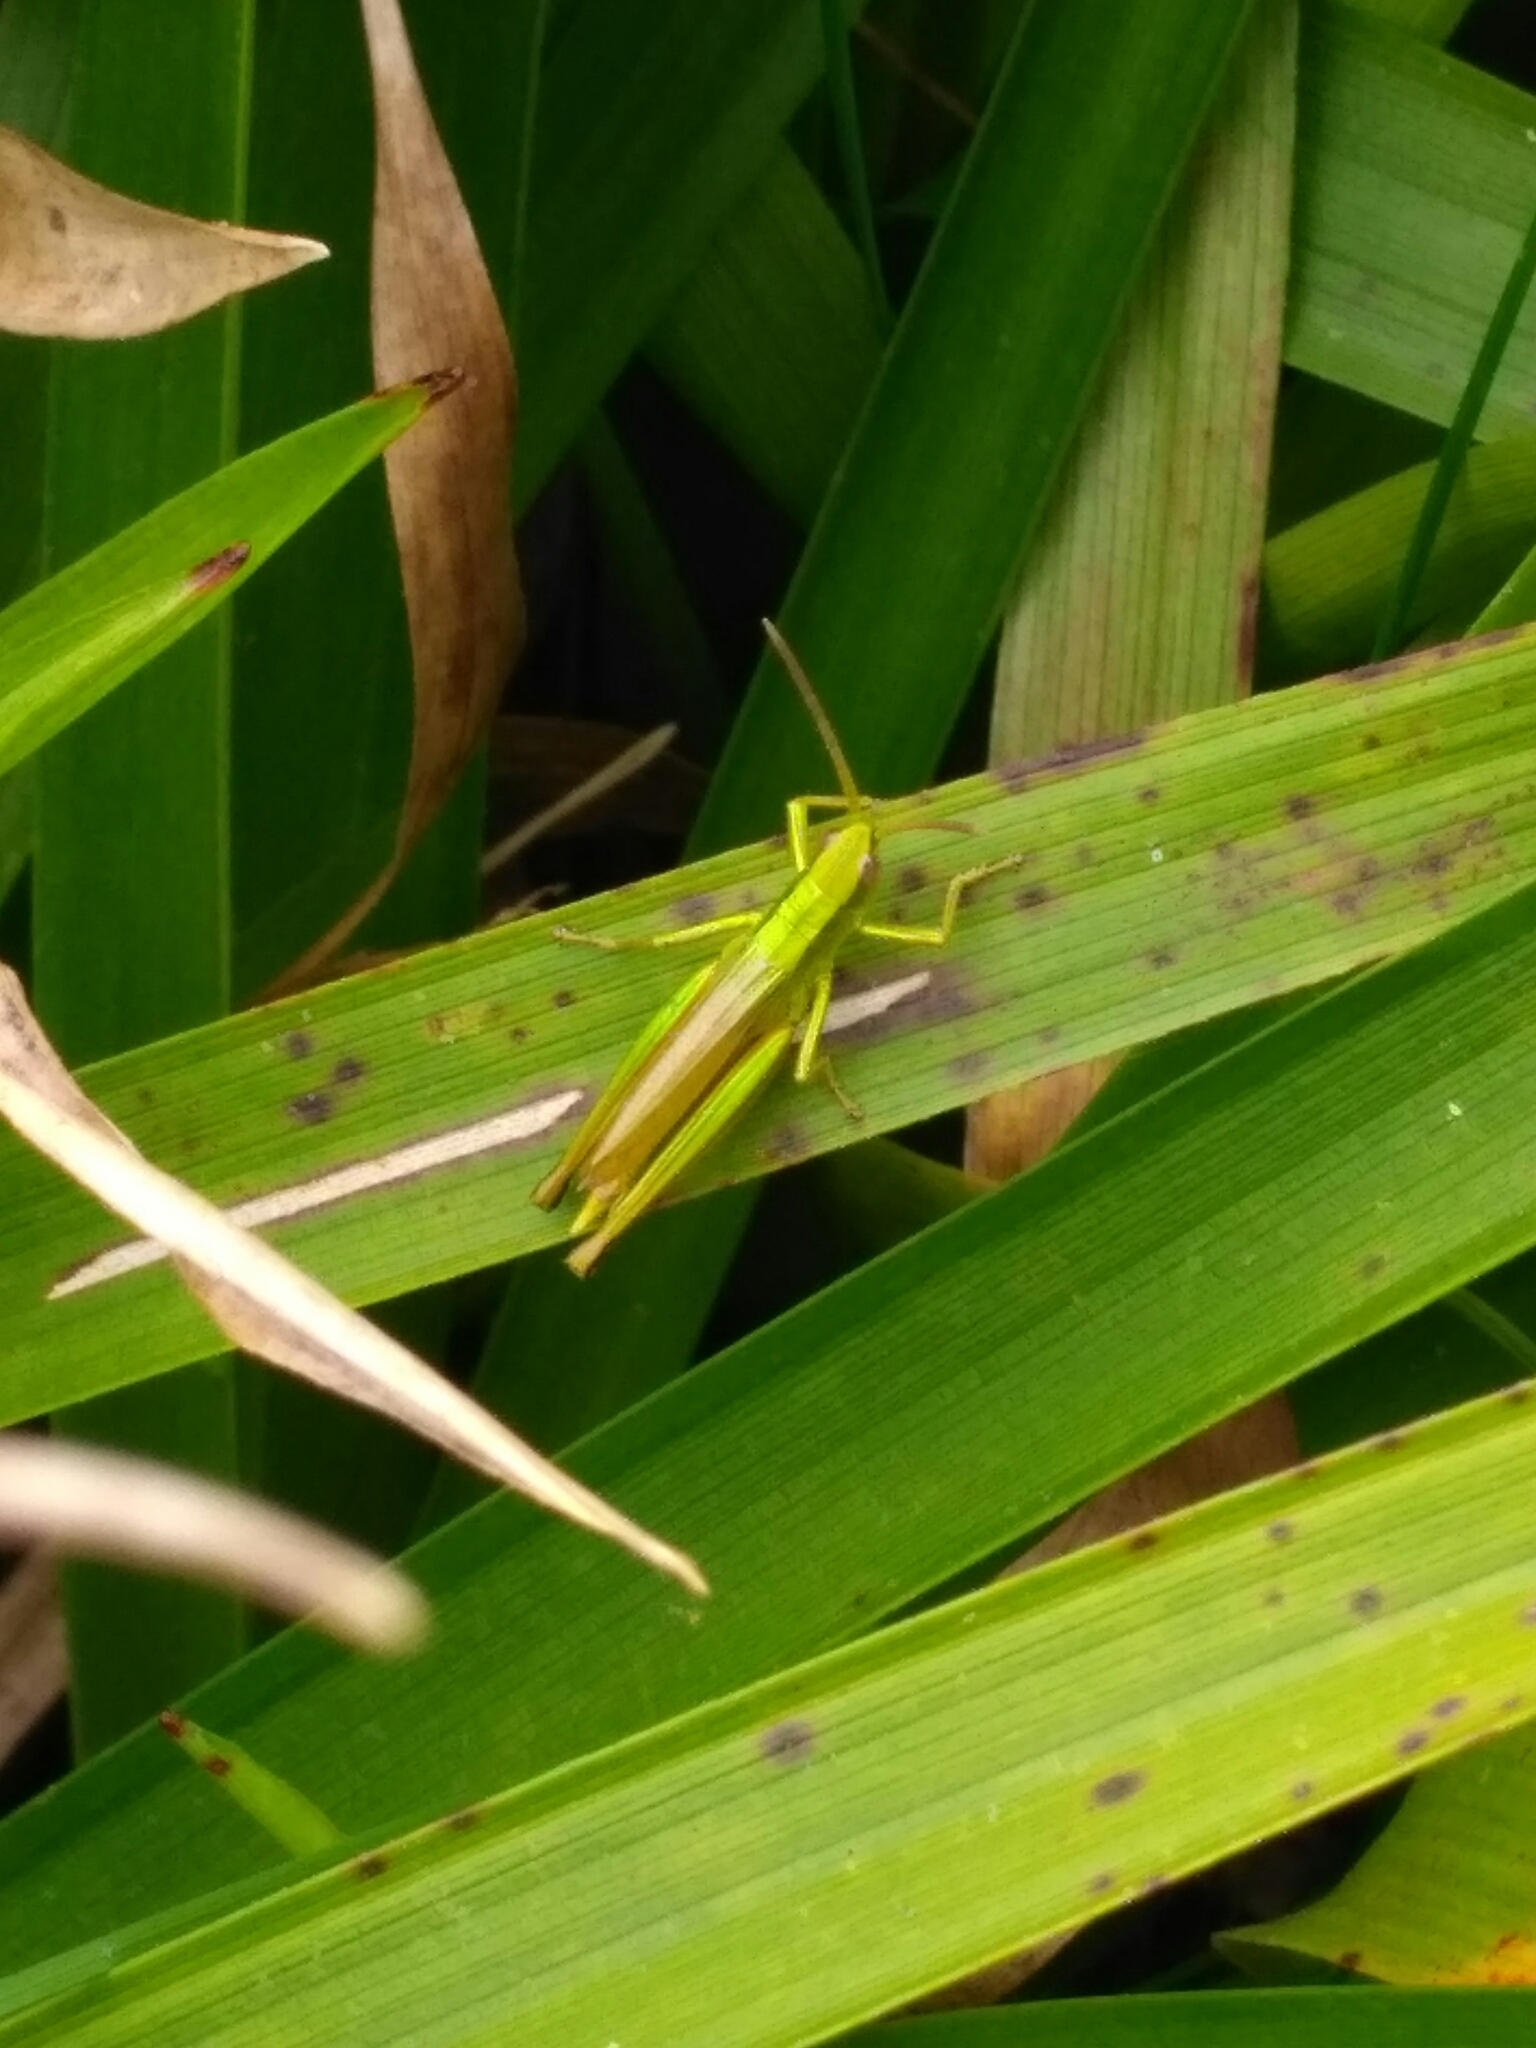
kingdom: Animalia
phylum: Arthropoda
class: Insecta
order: Orthoptera
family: Acrididae
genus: Chrysochraon
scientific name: Chrysochraon dispar
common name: Large gold grasshopper
